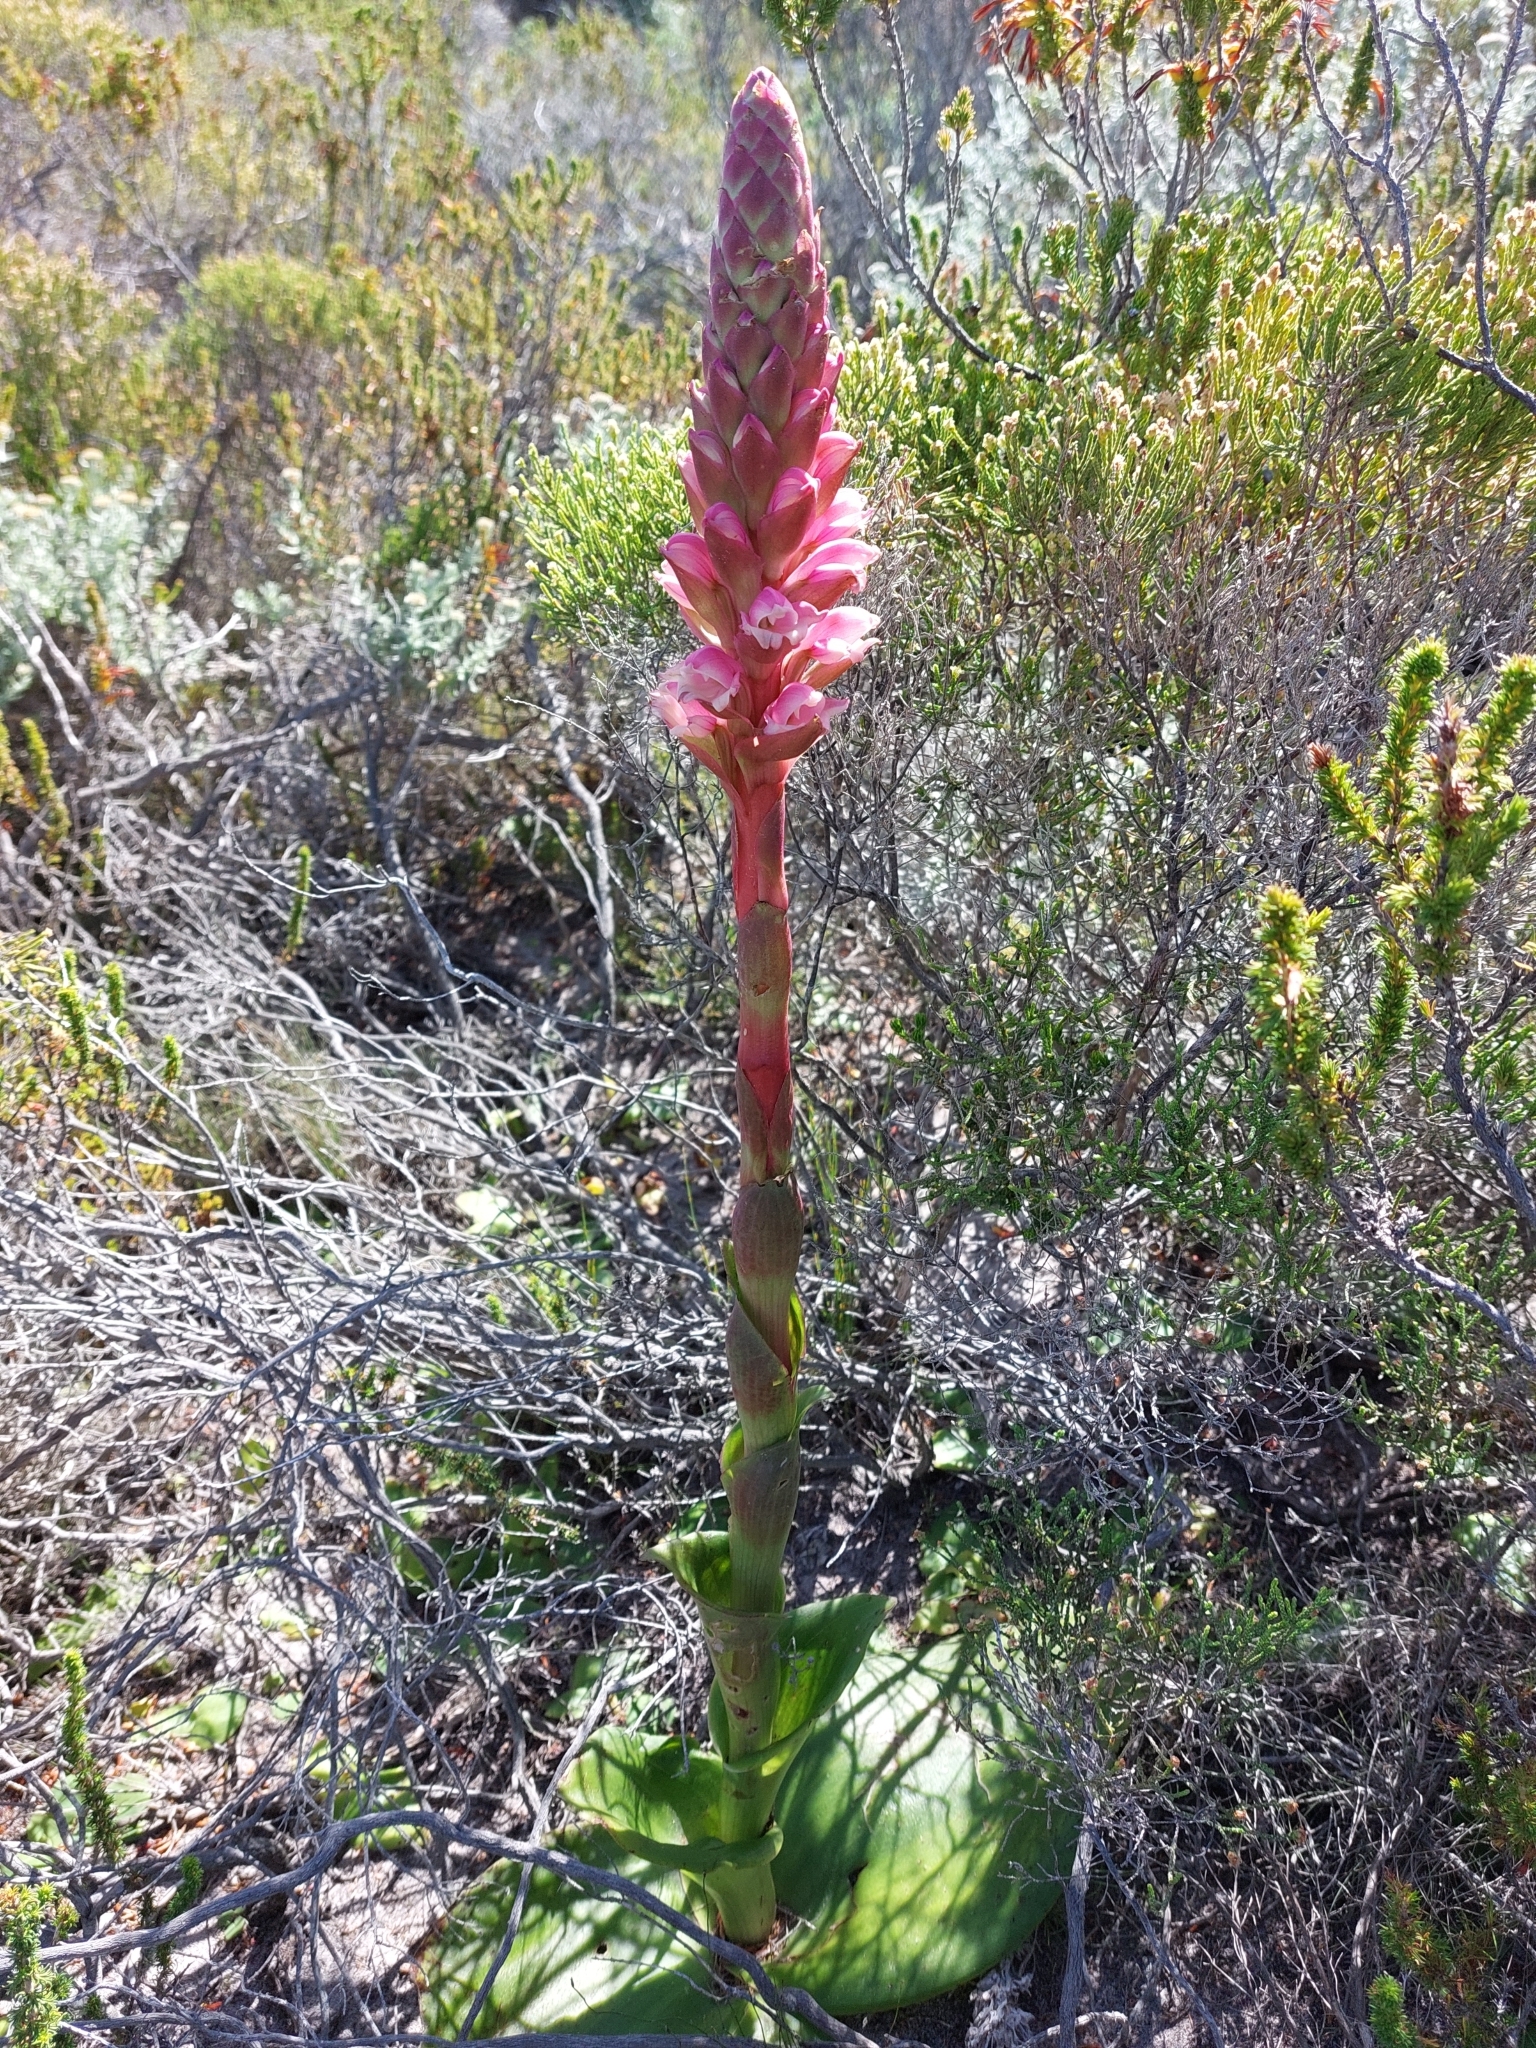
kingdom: Plantae
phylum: Tracheophyta
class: Liliopsida
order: Asparagales
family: Orchidaceae
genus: Satyrium
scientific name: Satyrium carneum
